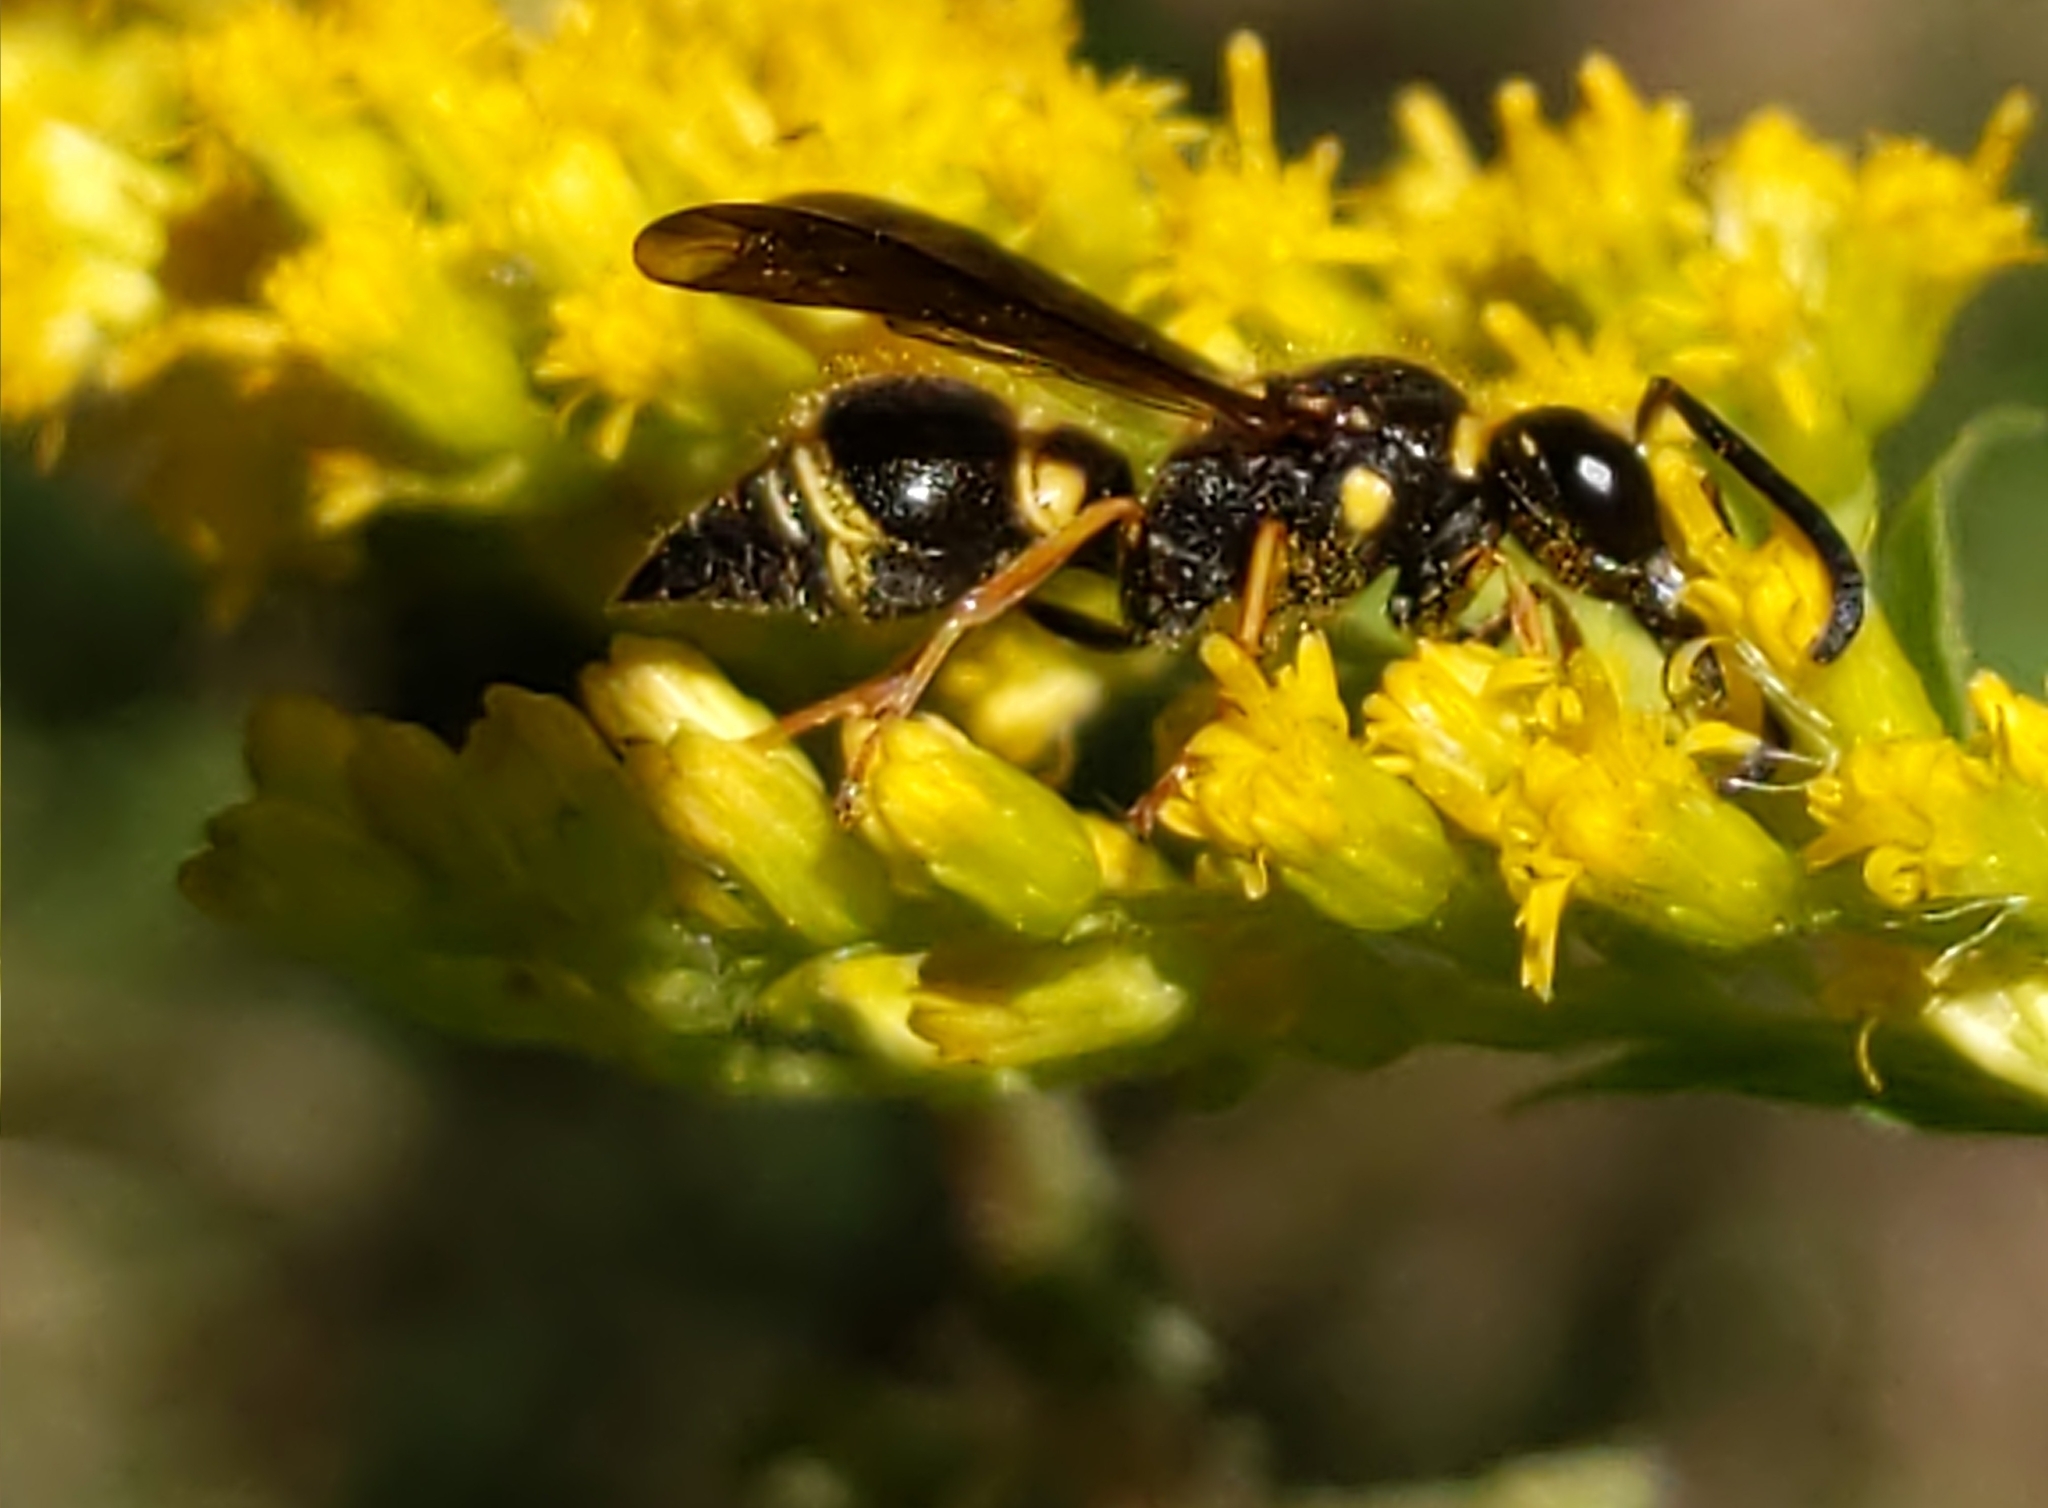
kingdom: Animalia
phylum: Arthropoda
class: Insecta
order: Hymenoptera
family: Vespidae
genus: Ancistrocerus
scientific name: Ancistrocerus campestris
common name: Smiling mason wasp
